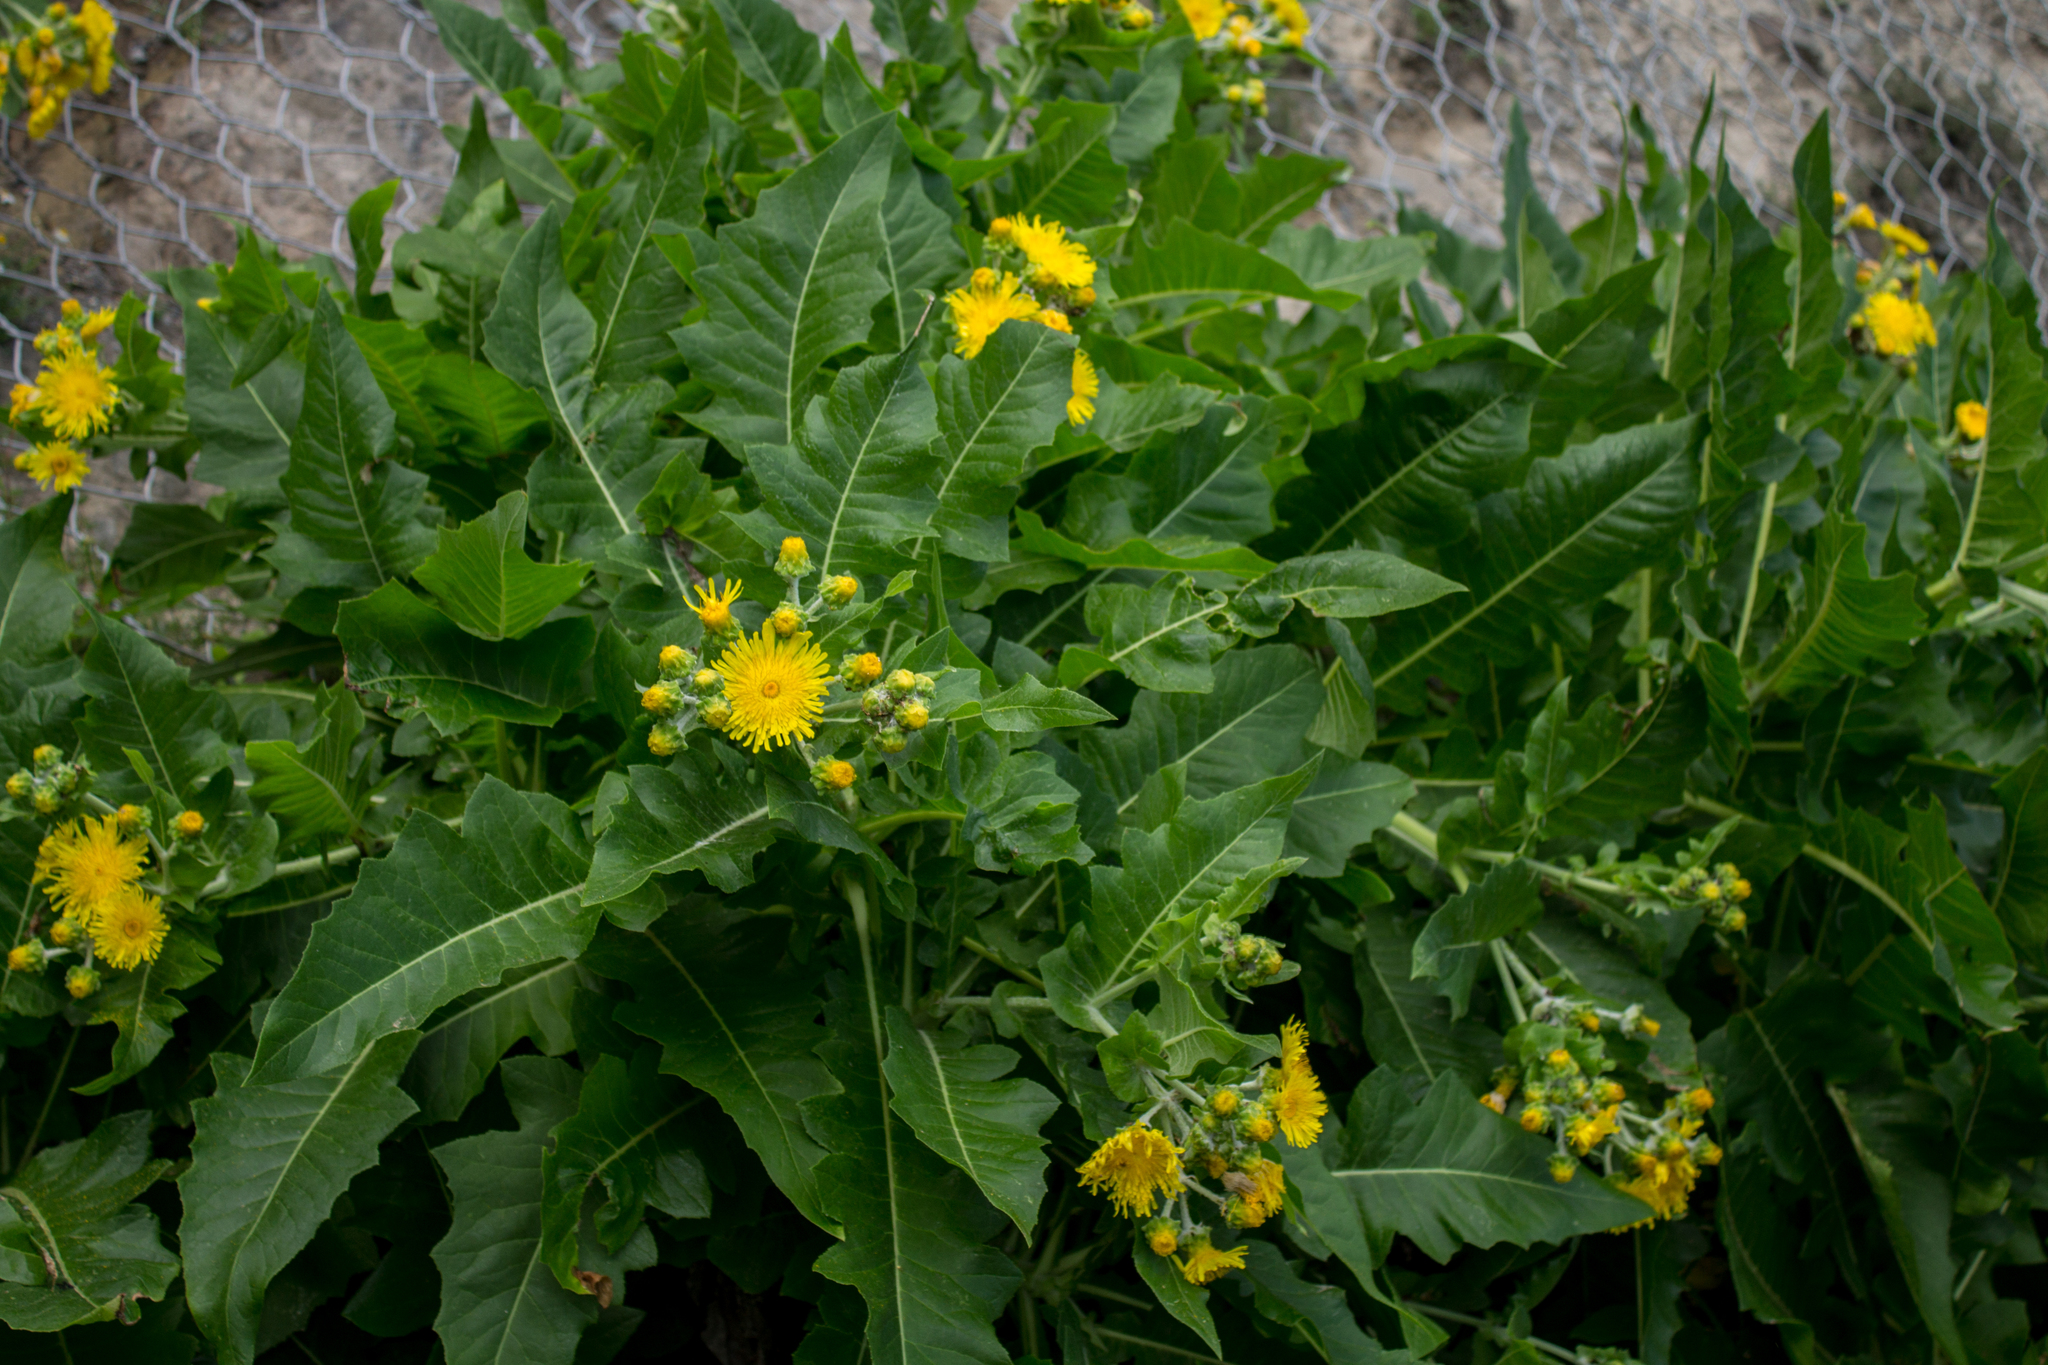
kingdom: Plantae
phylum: Tracheophyta
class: Magnoliopsida
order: Asterales
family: Asteraceae
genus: Sonchus
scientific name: Sonchus congestus
